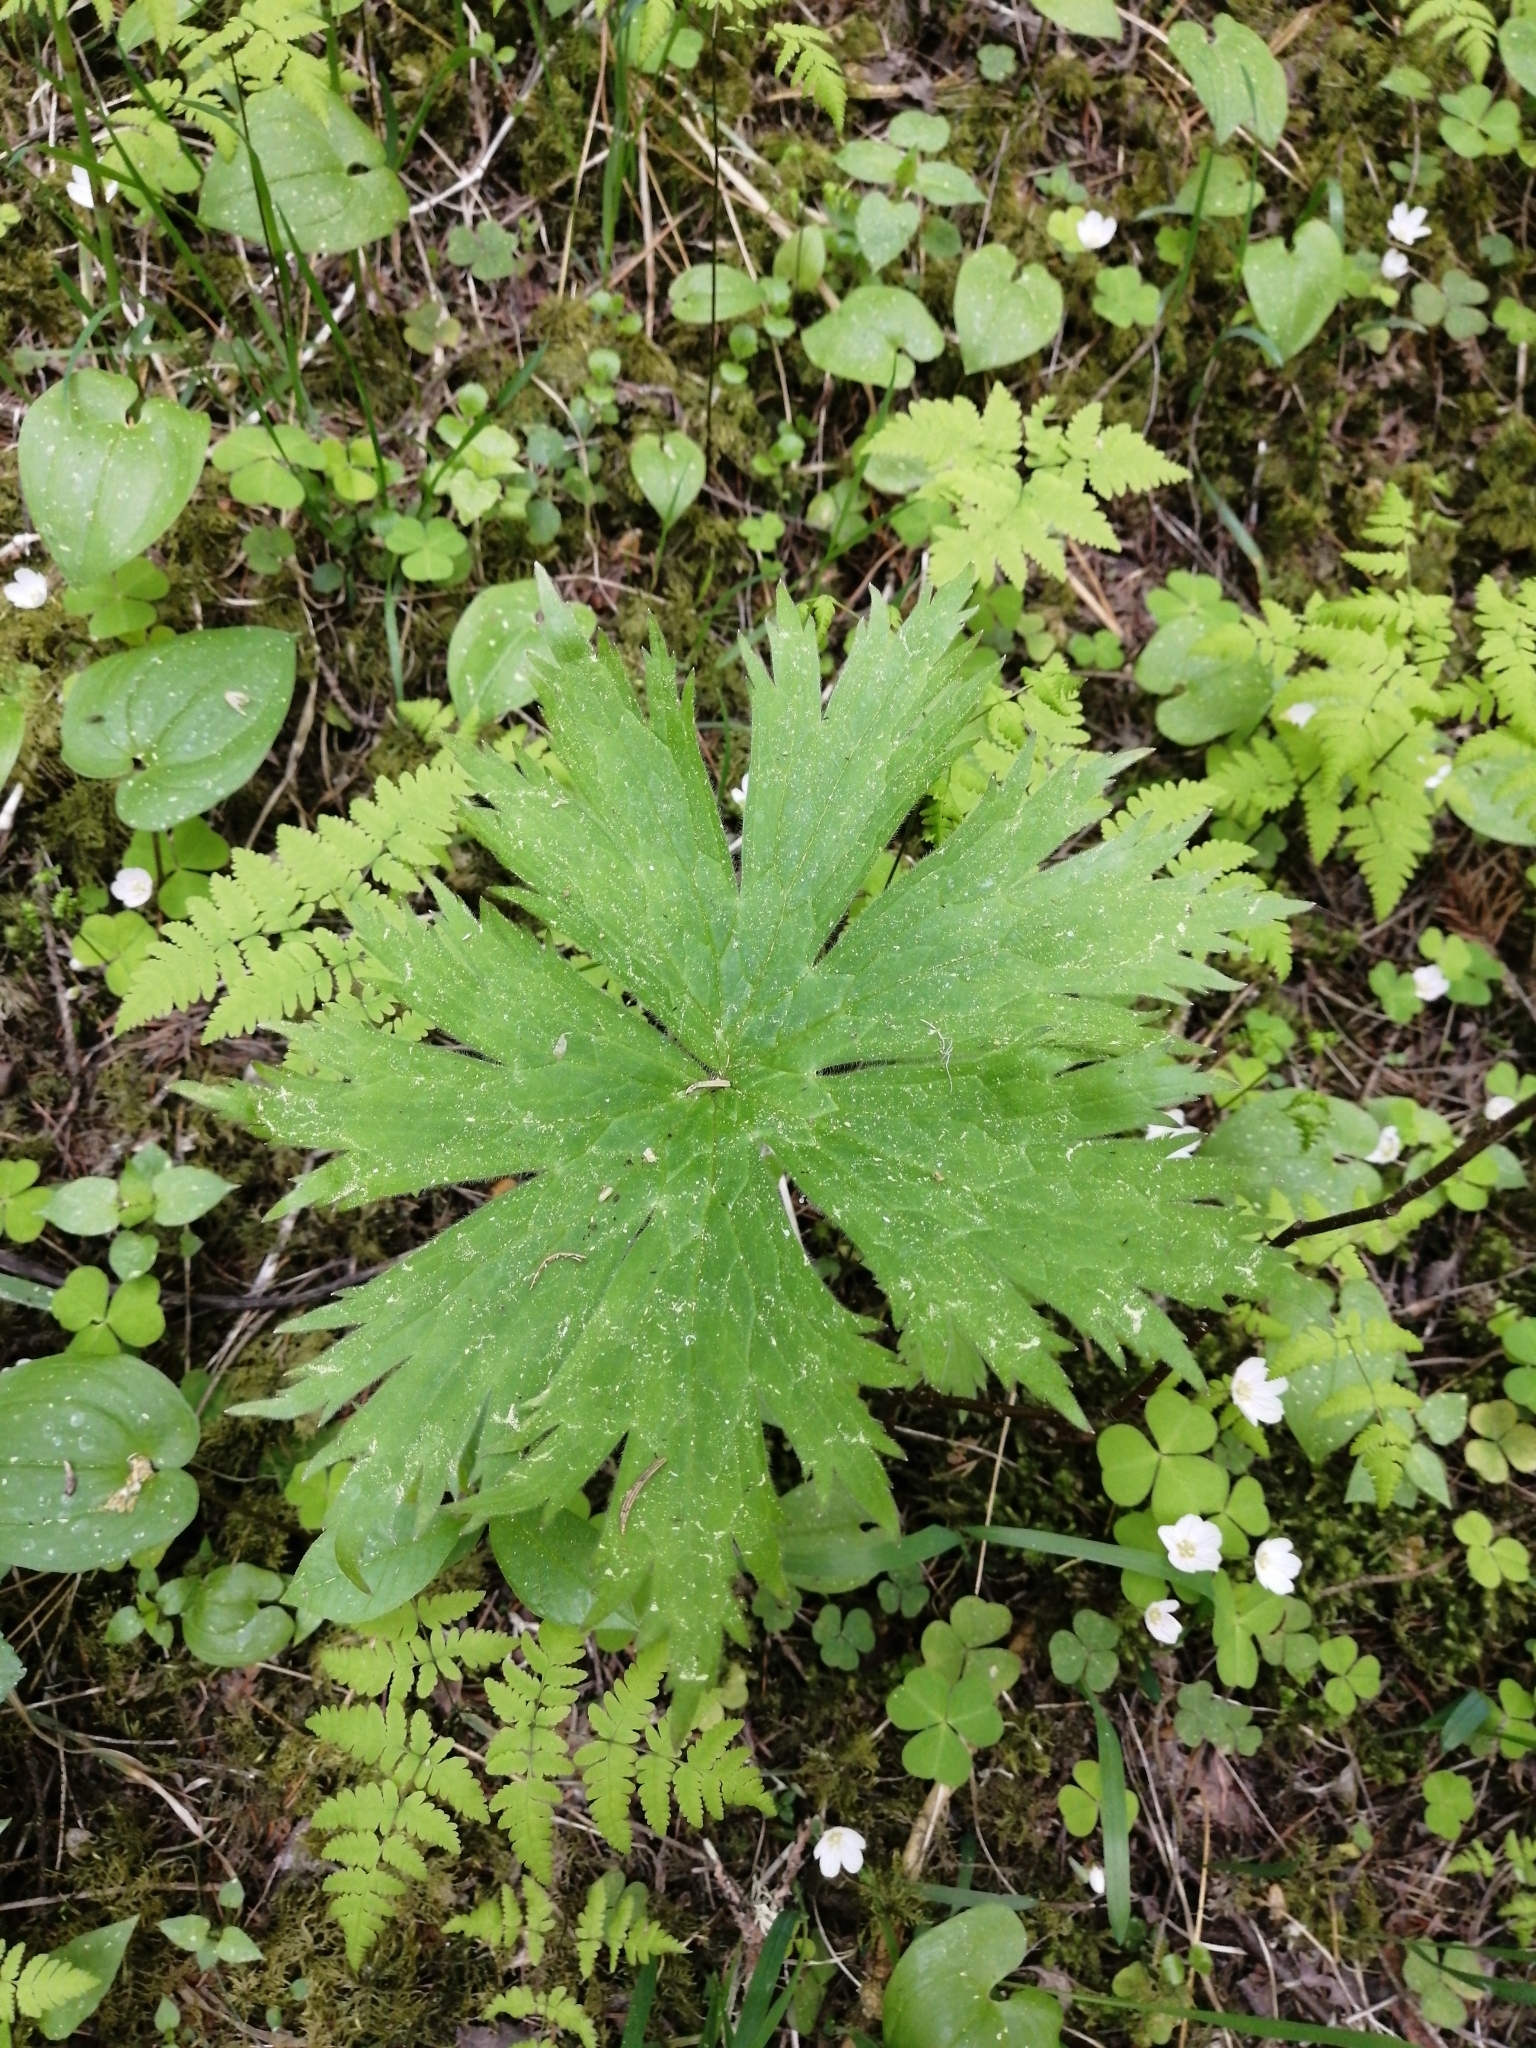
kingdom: Plantae
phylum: Tracheophyta
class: Magnoliopsida
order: Ranunculales
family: Ranunculaceae
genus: Aconitum
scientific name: Aconitum septentrionale
